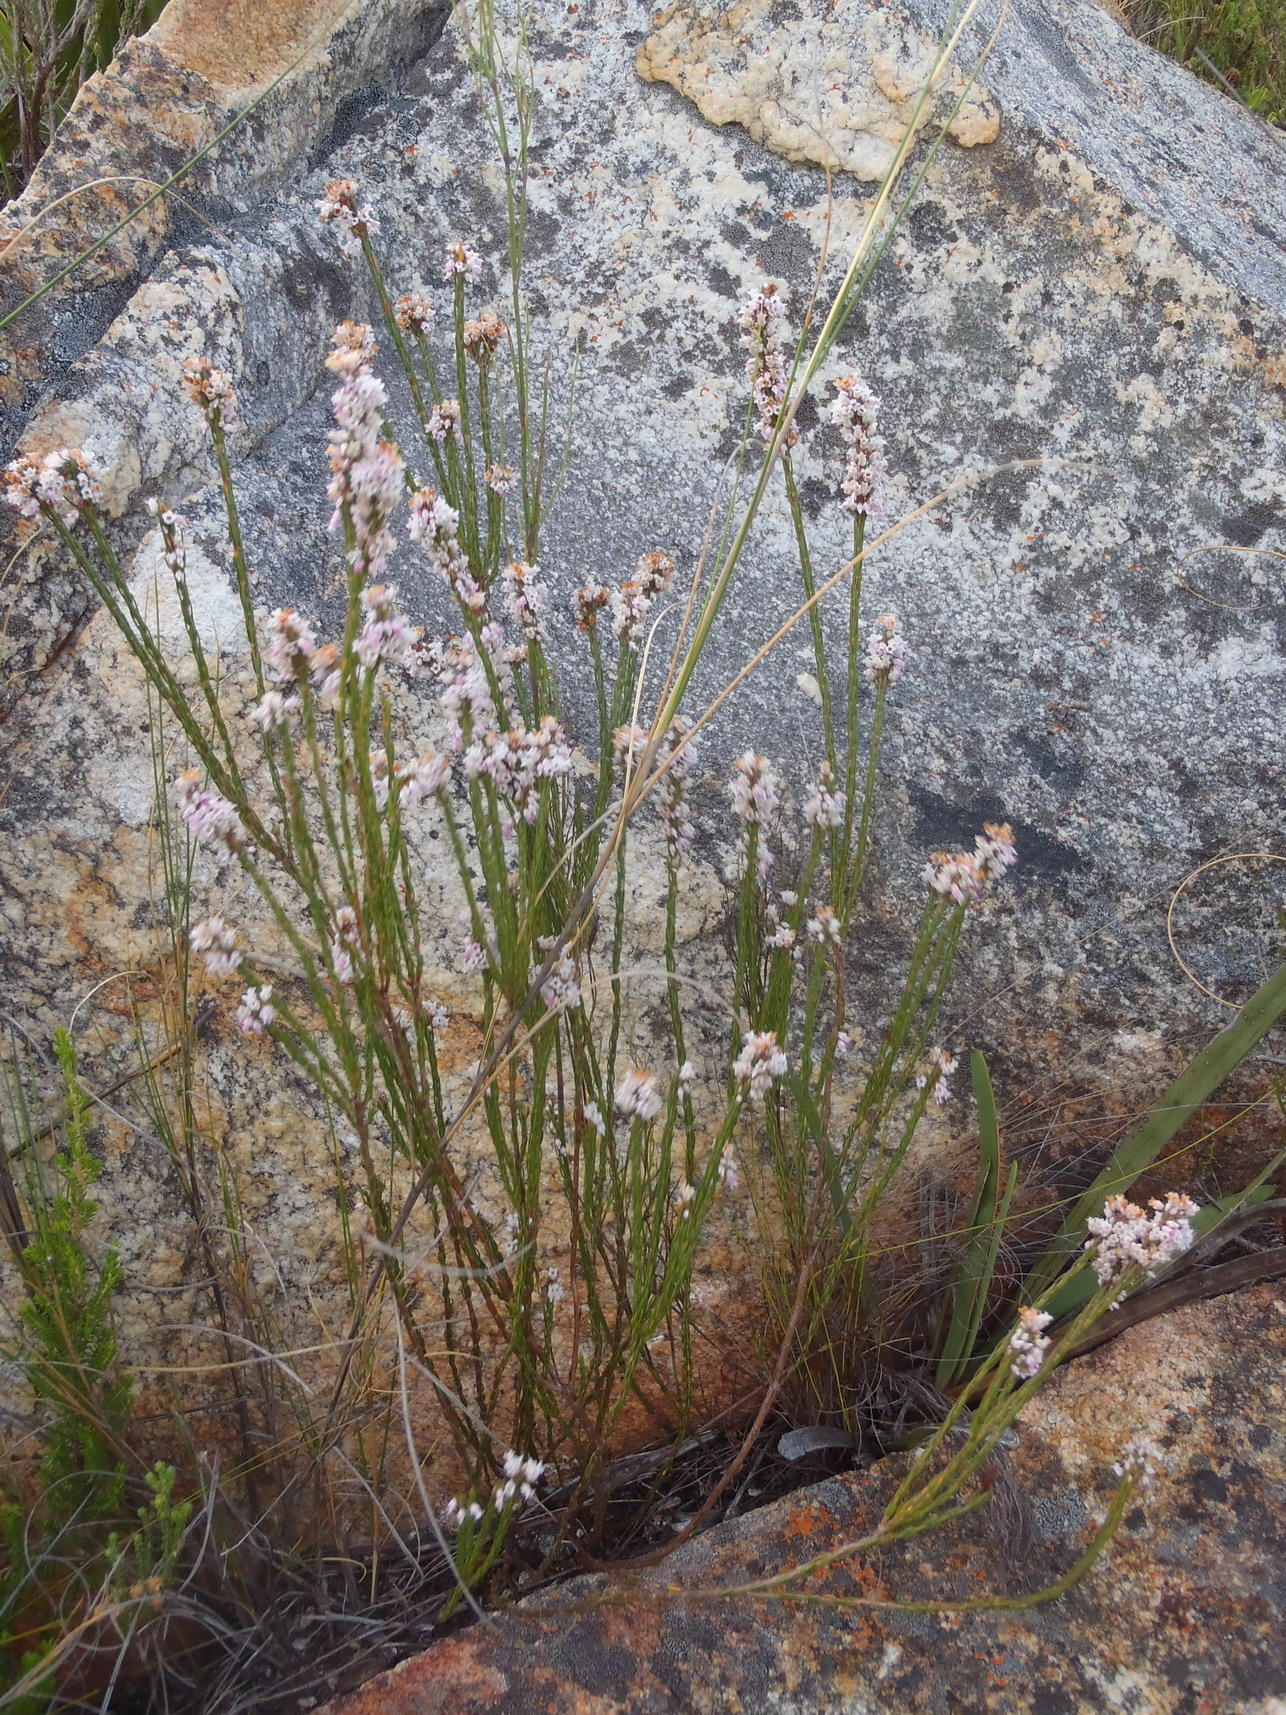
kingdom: Plantae
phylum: Tracheophyta
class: Magnoliopsida
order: Ericales
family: Ericaceae
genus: Erica
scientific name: Erica articularis
